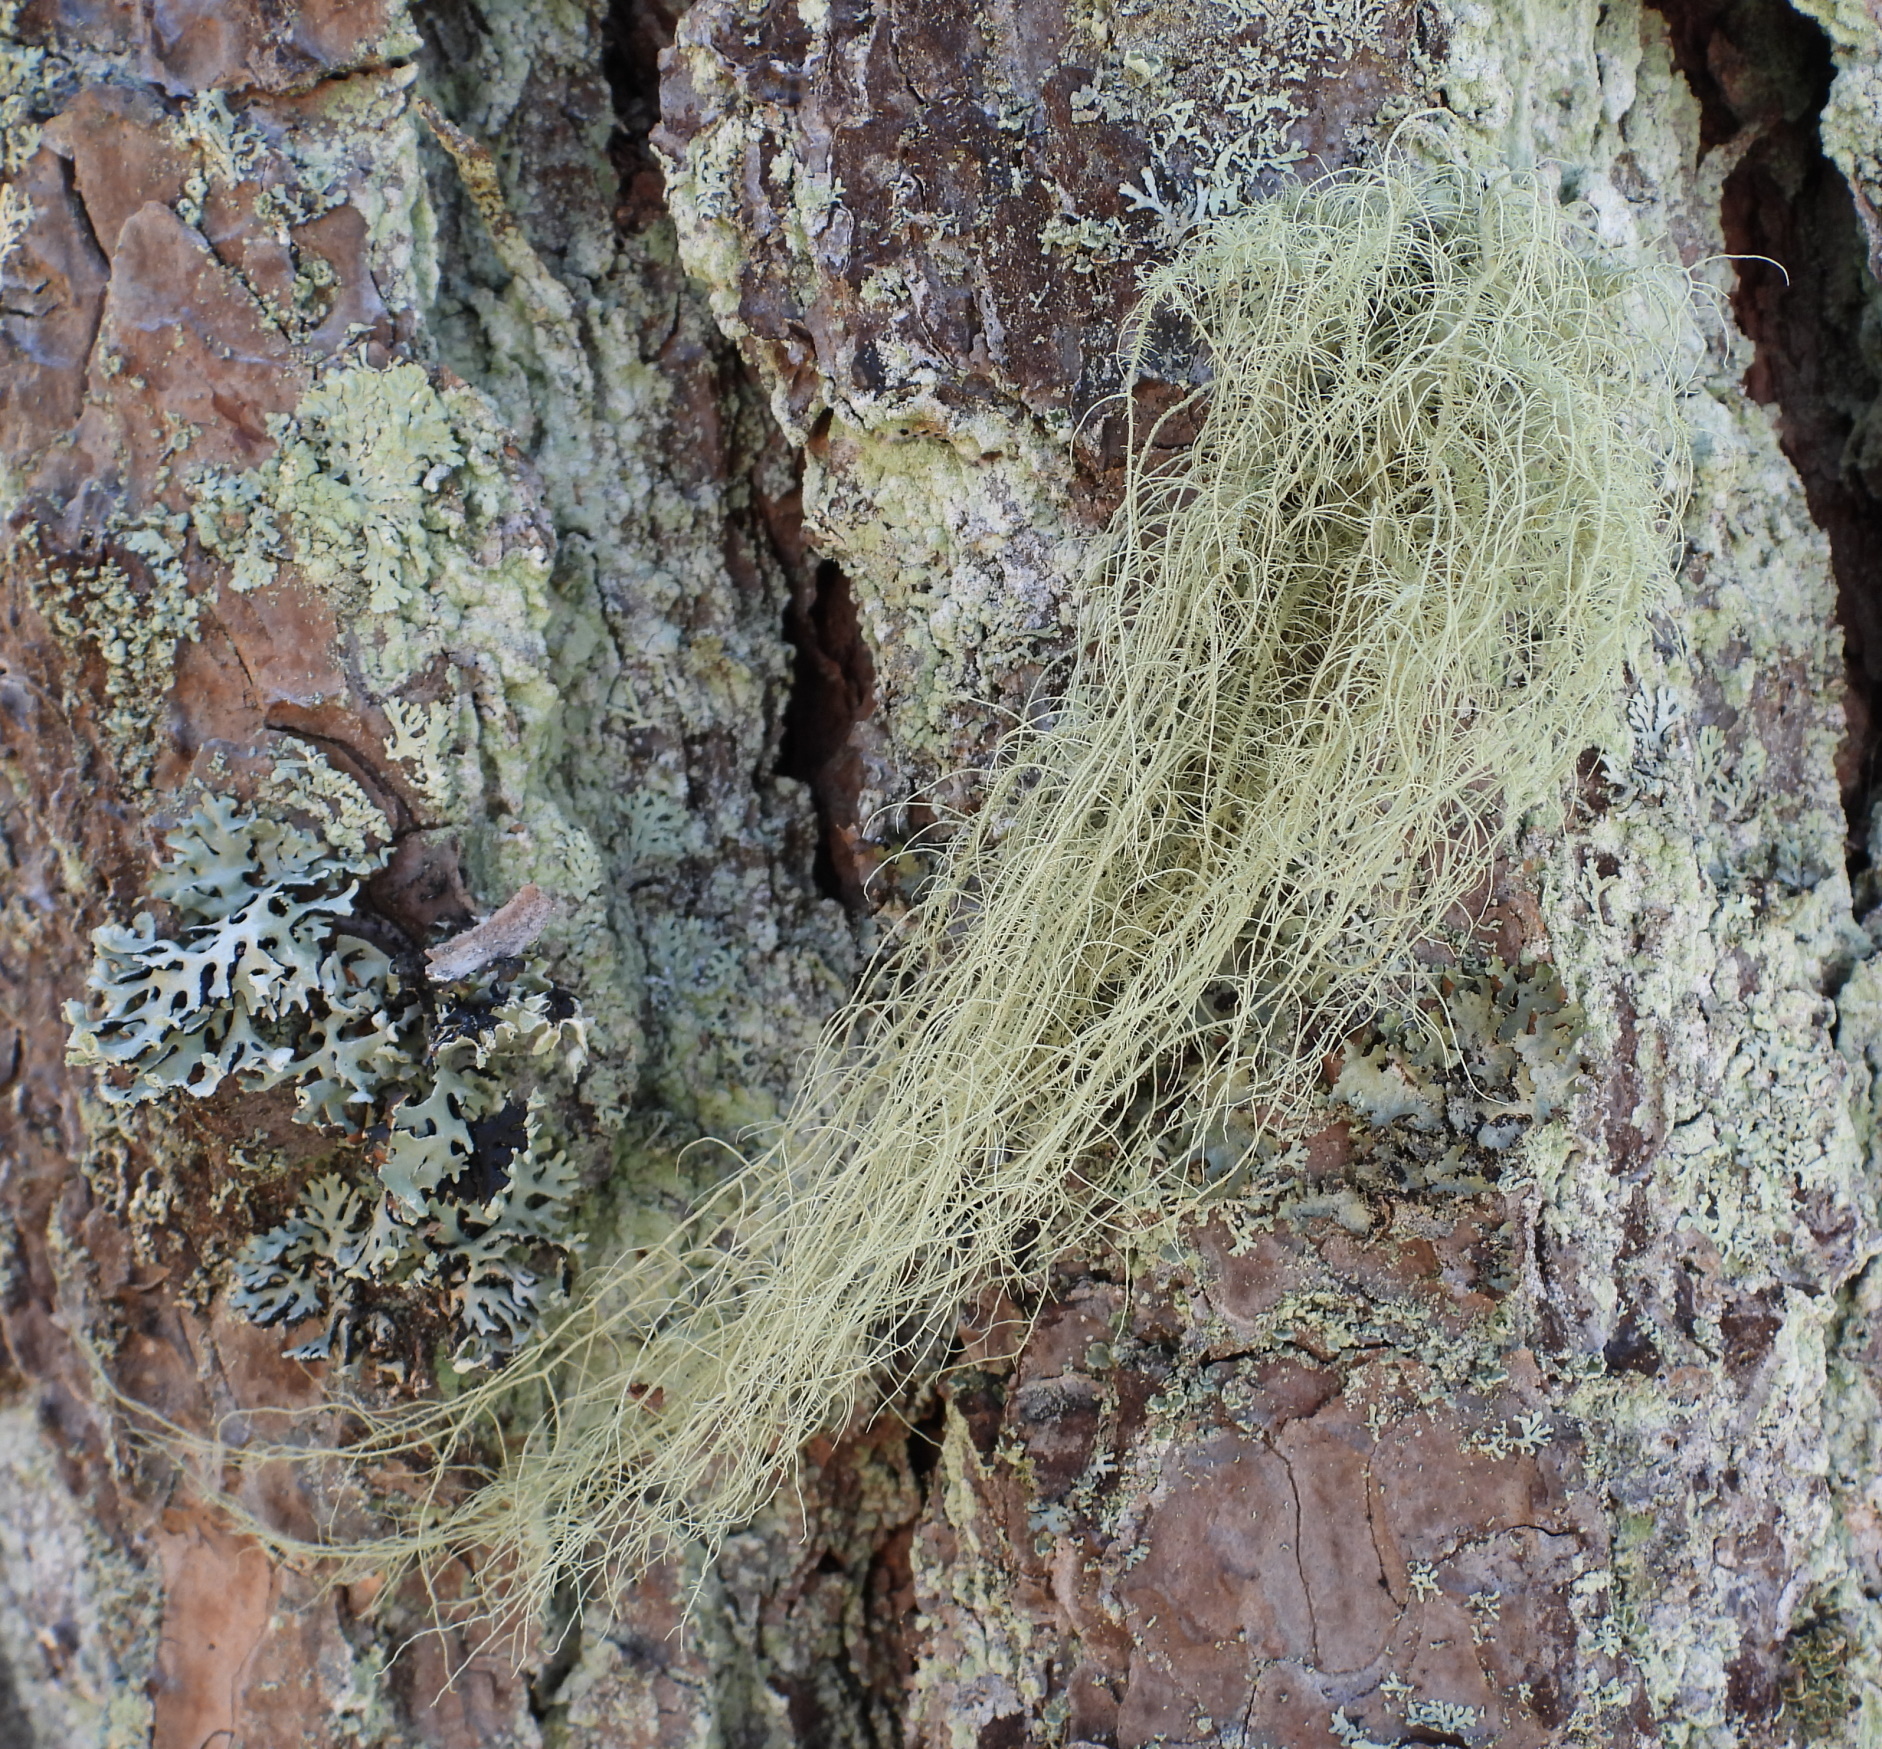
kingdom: Fungi
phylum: Ascomycota
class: Lecanoromycetes
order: Lecanorales
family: Parmeliaceae
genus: Usnea
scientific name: Usnea dasopoga
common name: Fishbone beard lichen
